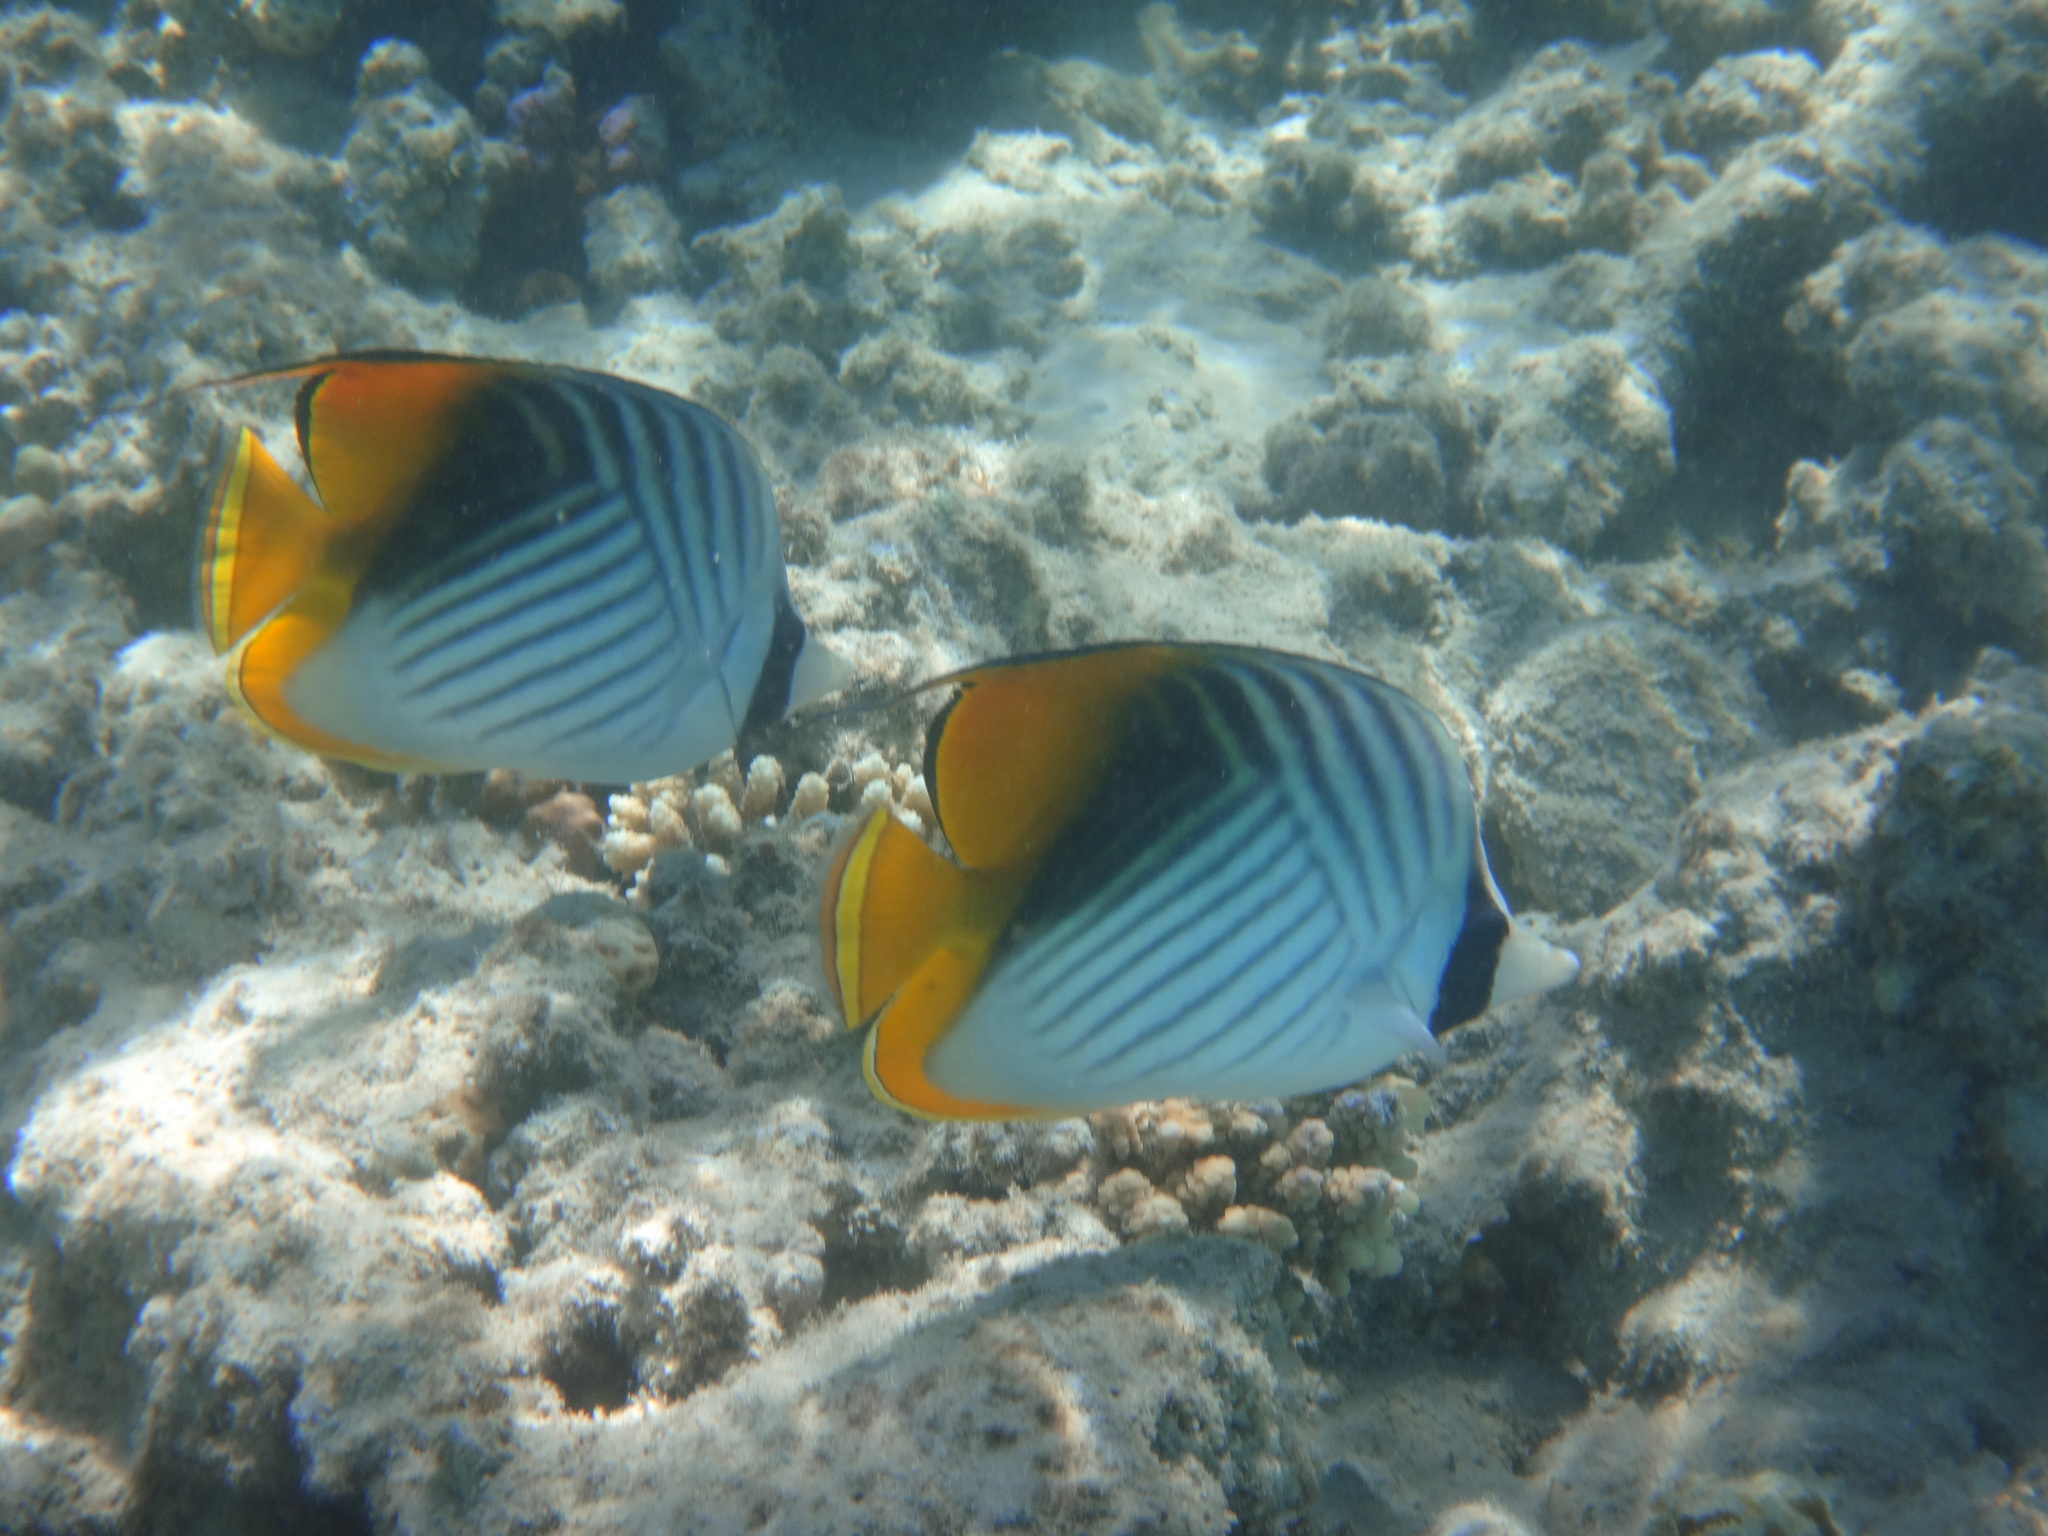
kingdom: Animalia
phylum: Chordata
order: Perciformes
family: Chaetodontidae
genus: Chaetodon
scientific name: Chaetodon auriga
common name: Threadfin butterflyfish
